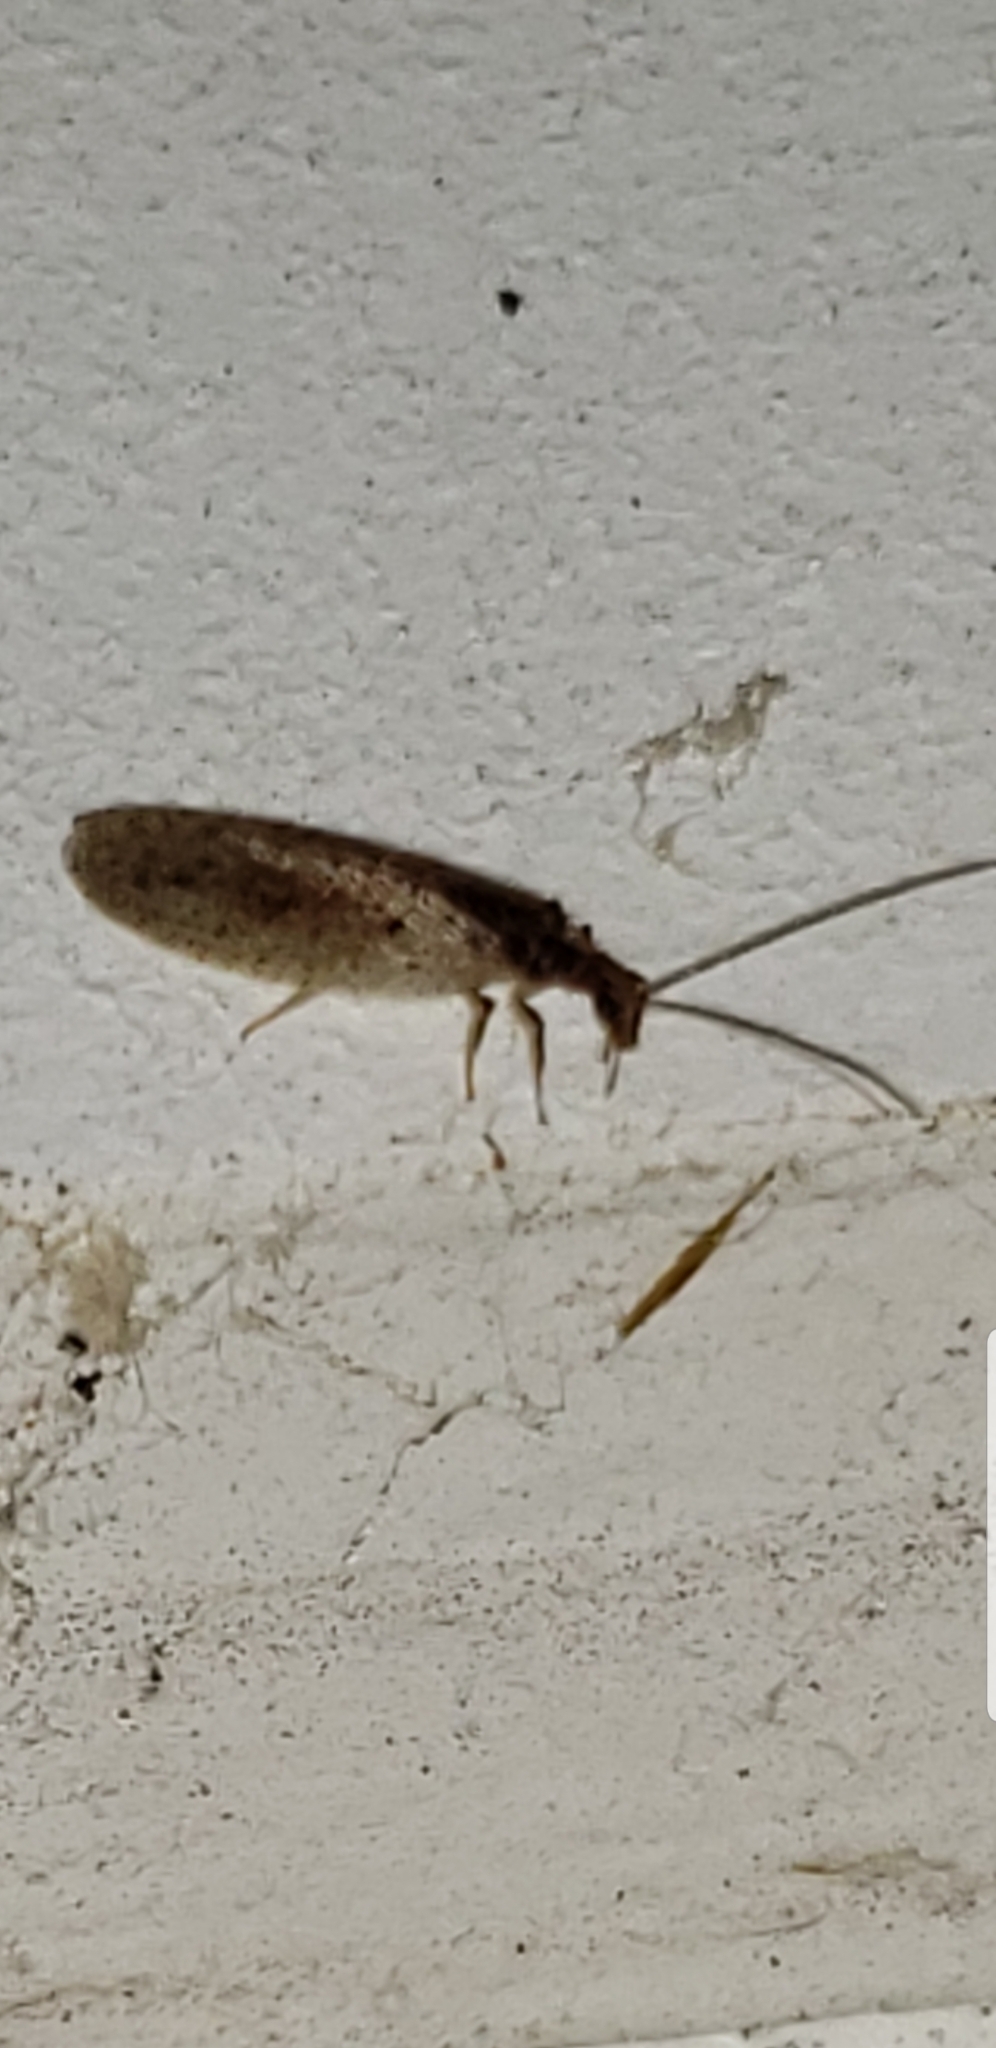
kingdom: Animalia
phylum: Arthropoda
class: Insecta
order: Neuroptera
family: Hemerobiidae
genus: Micromus
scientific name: Micromus subanticus
